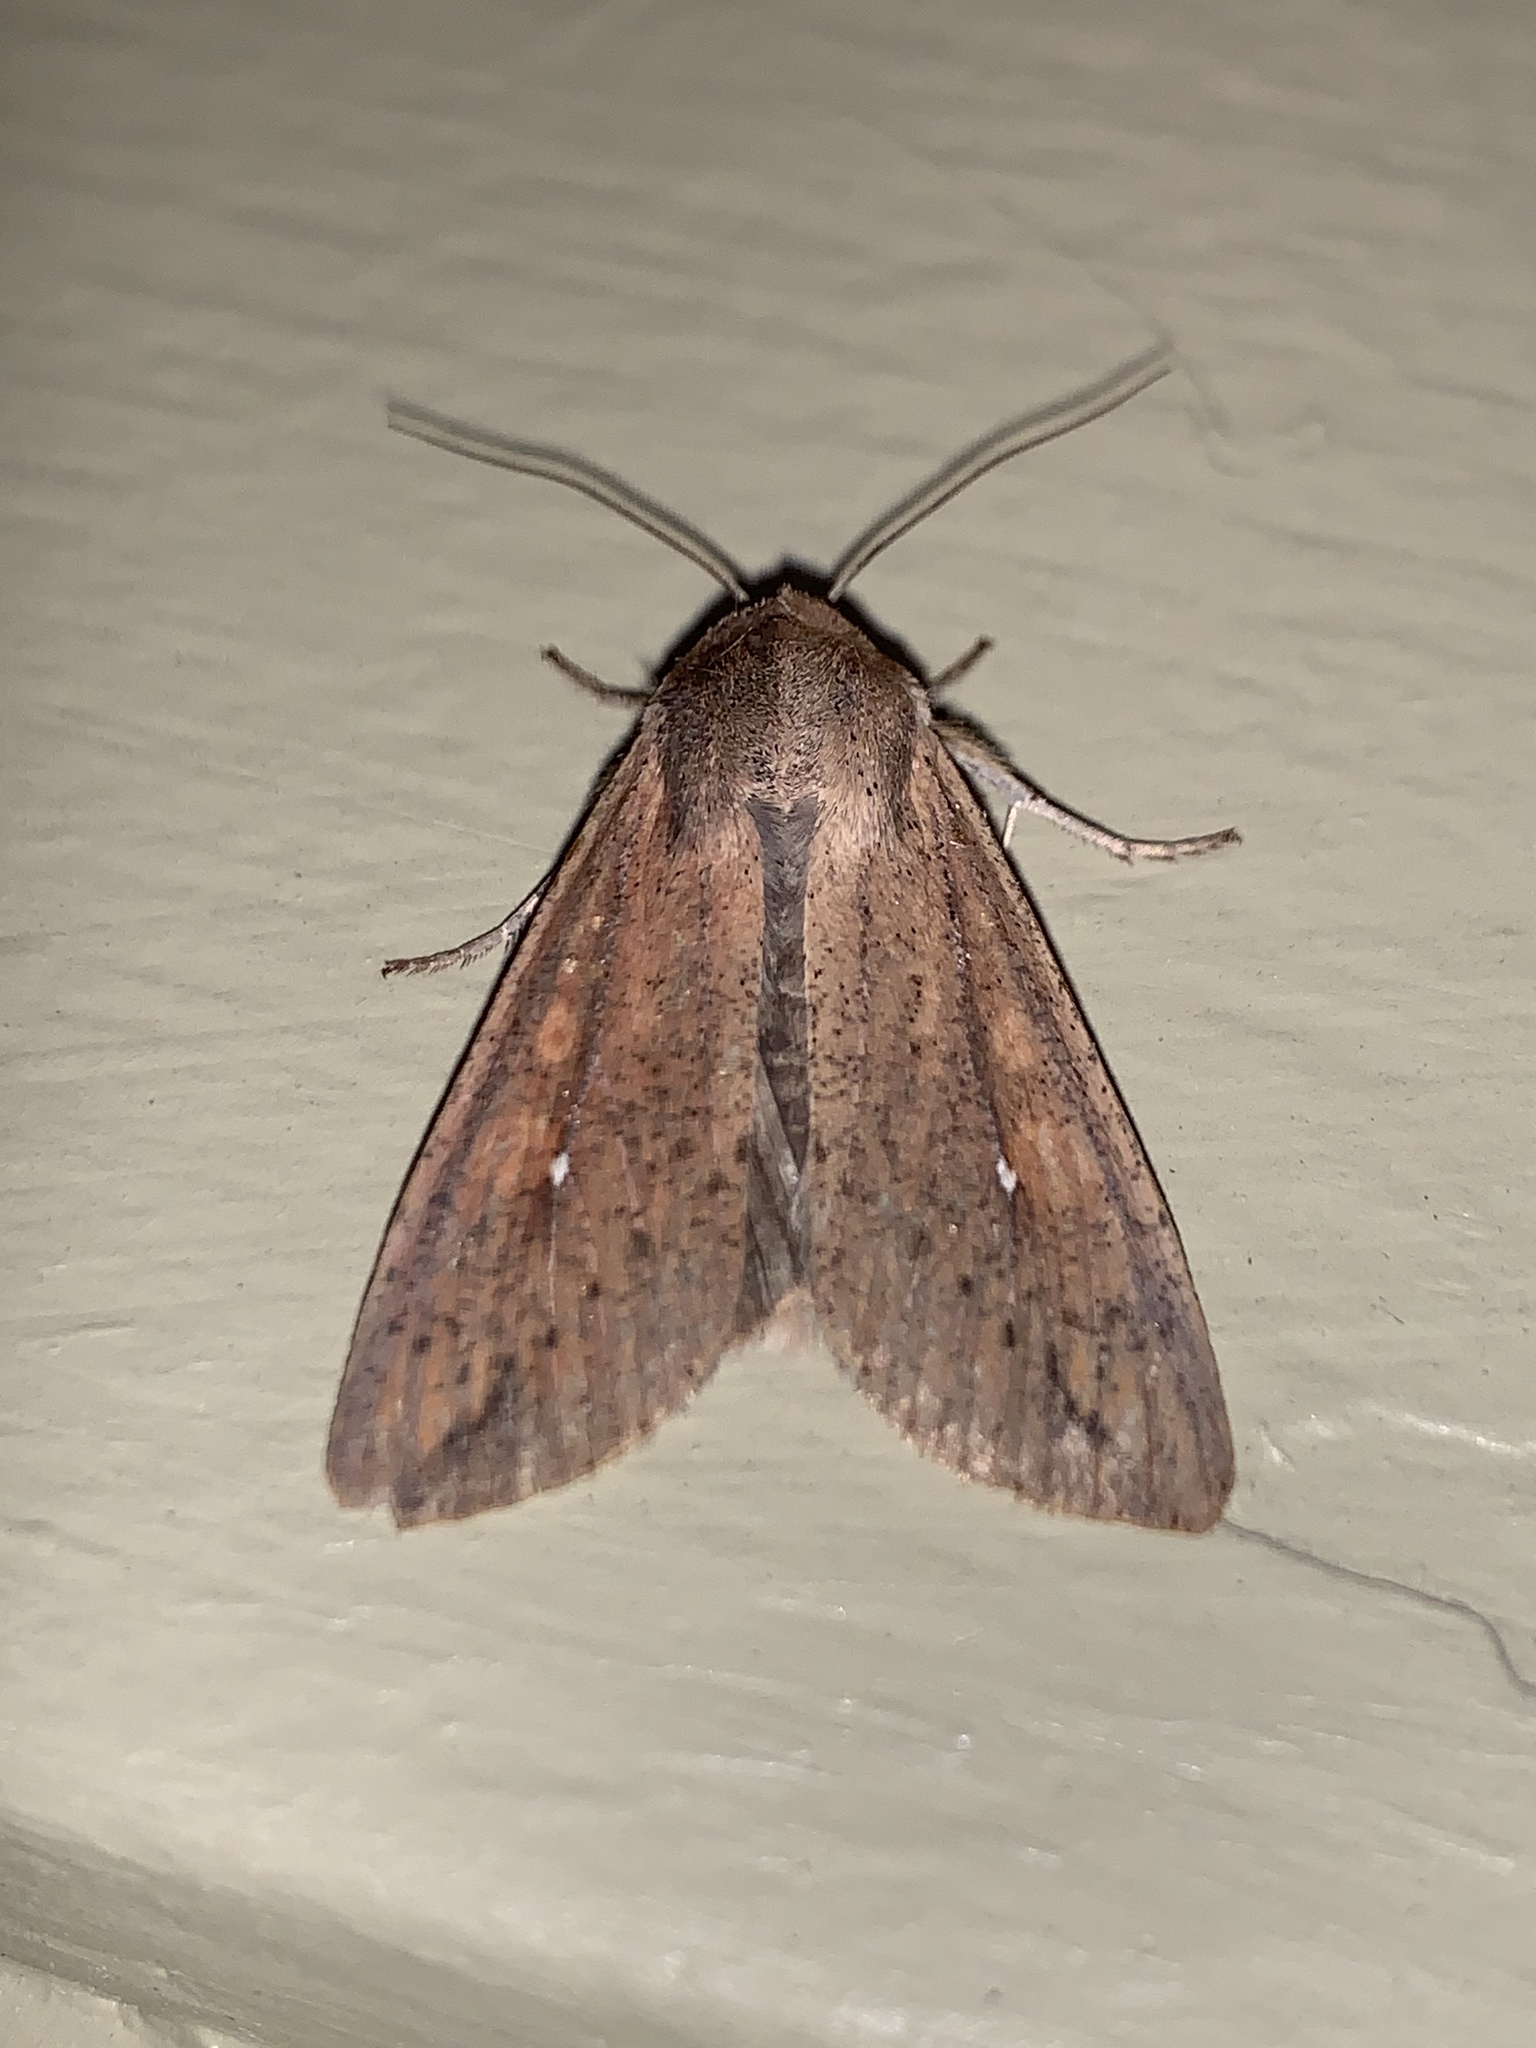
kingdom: Animalia
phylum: Arthropoda
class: Insecta
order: Lepidoptera
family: Noctuidae
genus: Mythimna
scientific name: Mythimna unipuncta
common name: White-speck
